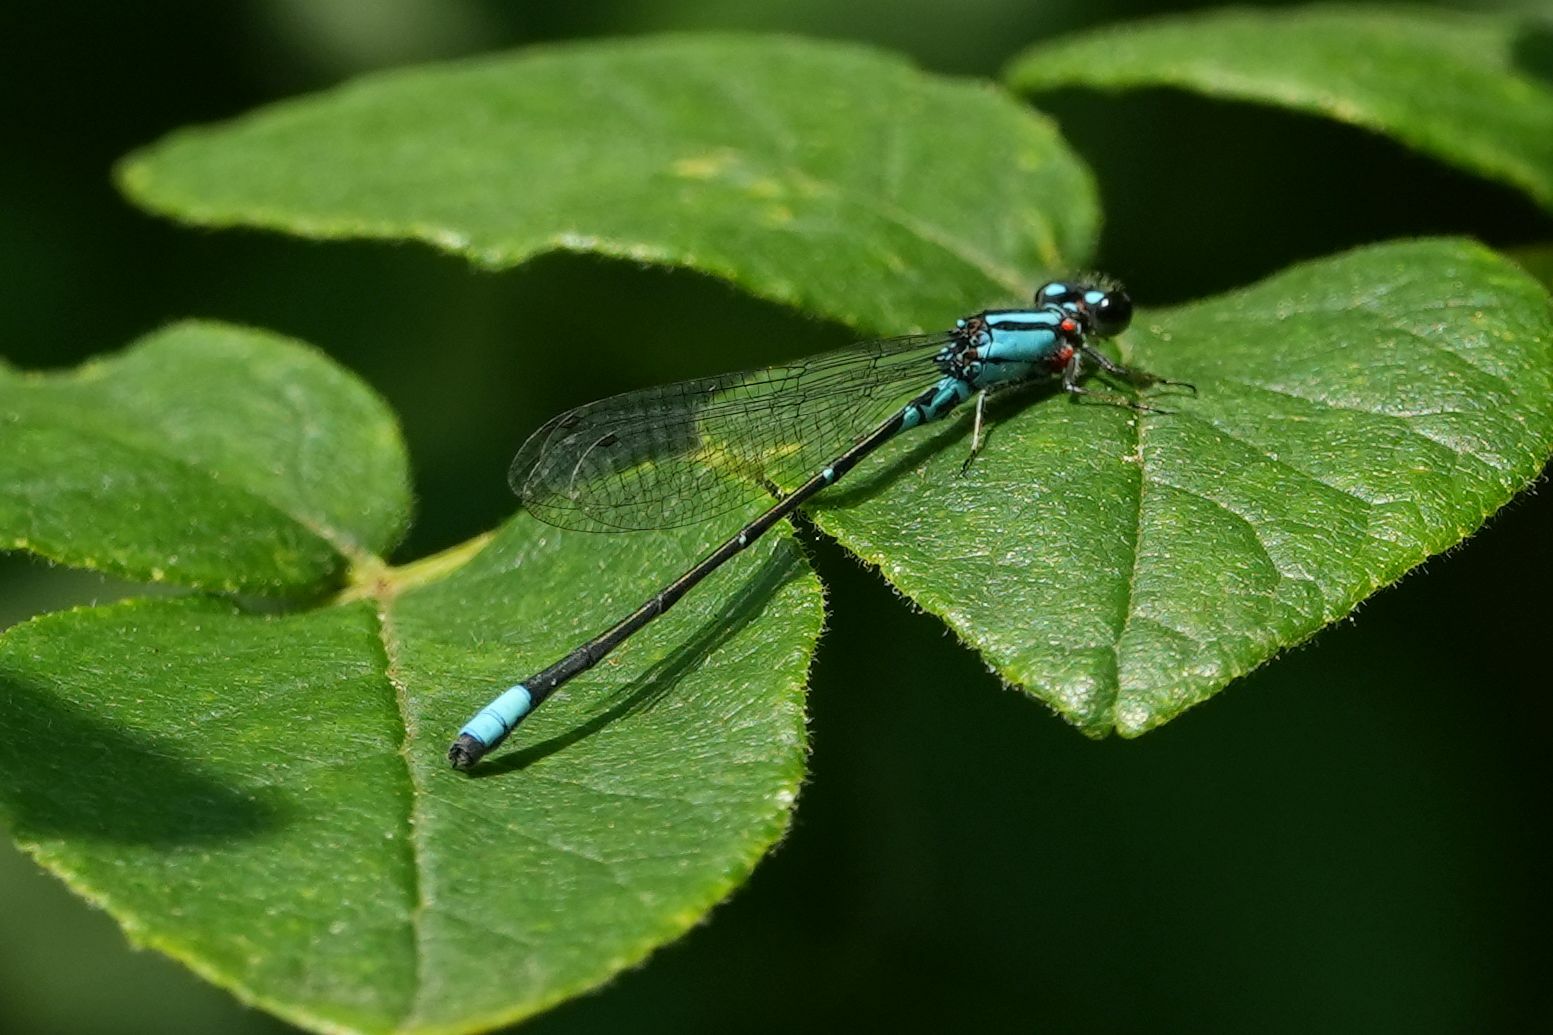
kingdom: Animalia
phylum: Arthropoda
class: Insecta
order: Odonata
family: Coenagrionidae
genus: Enallagma
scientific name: Enallagma geminatum
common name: Skimming bluet
